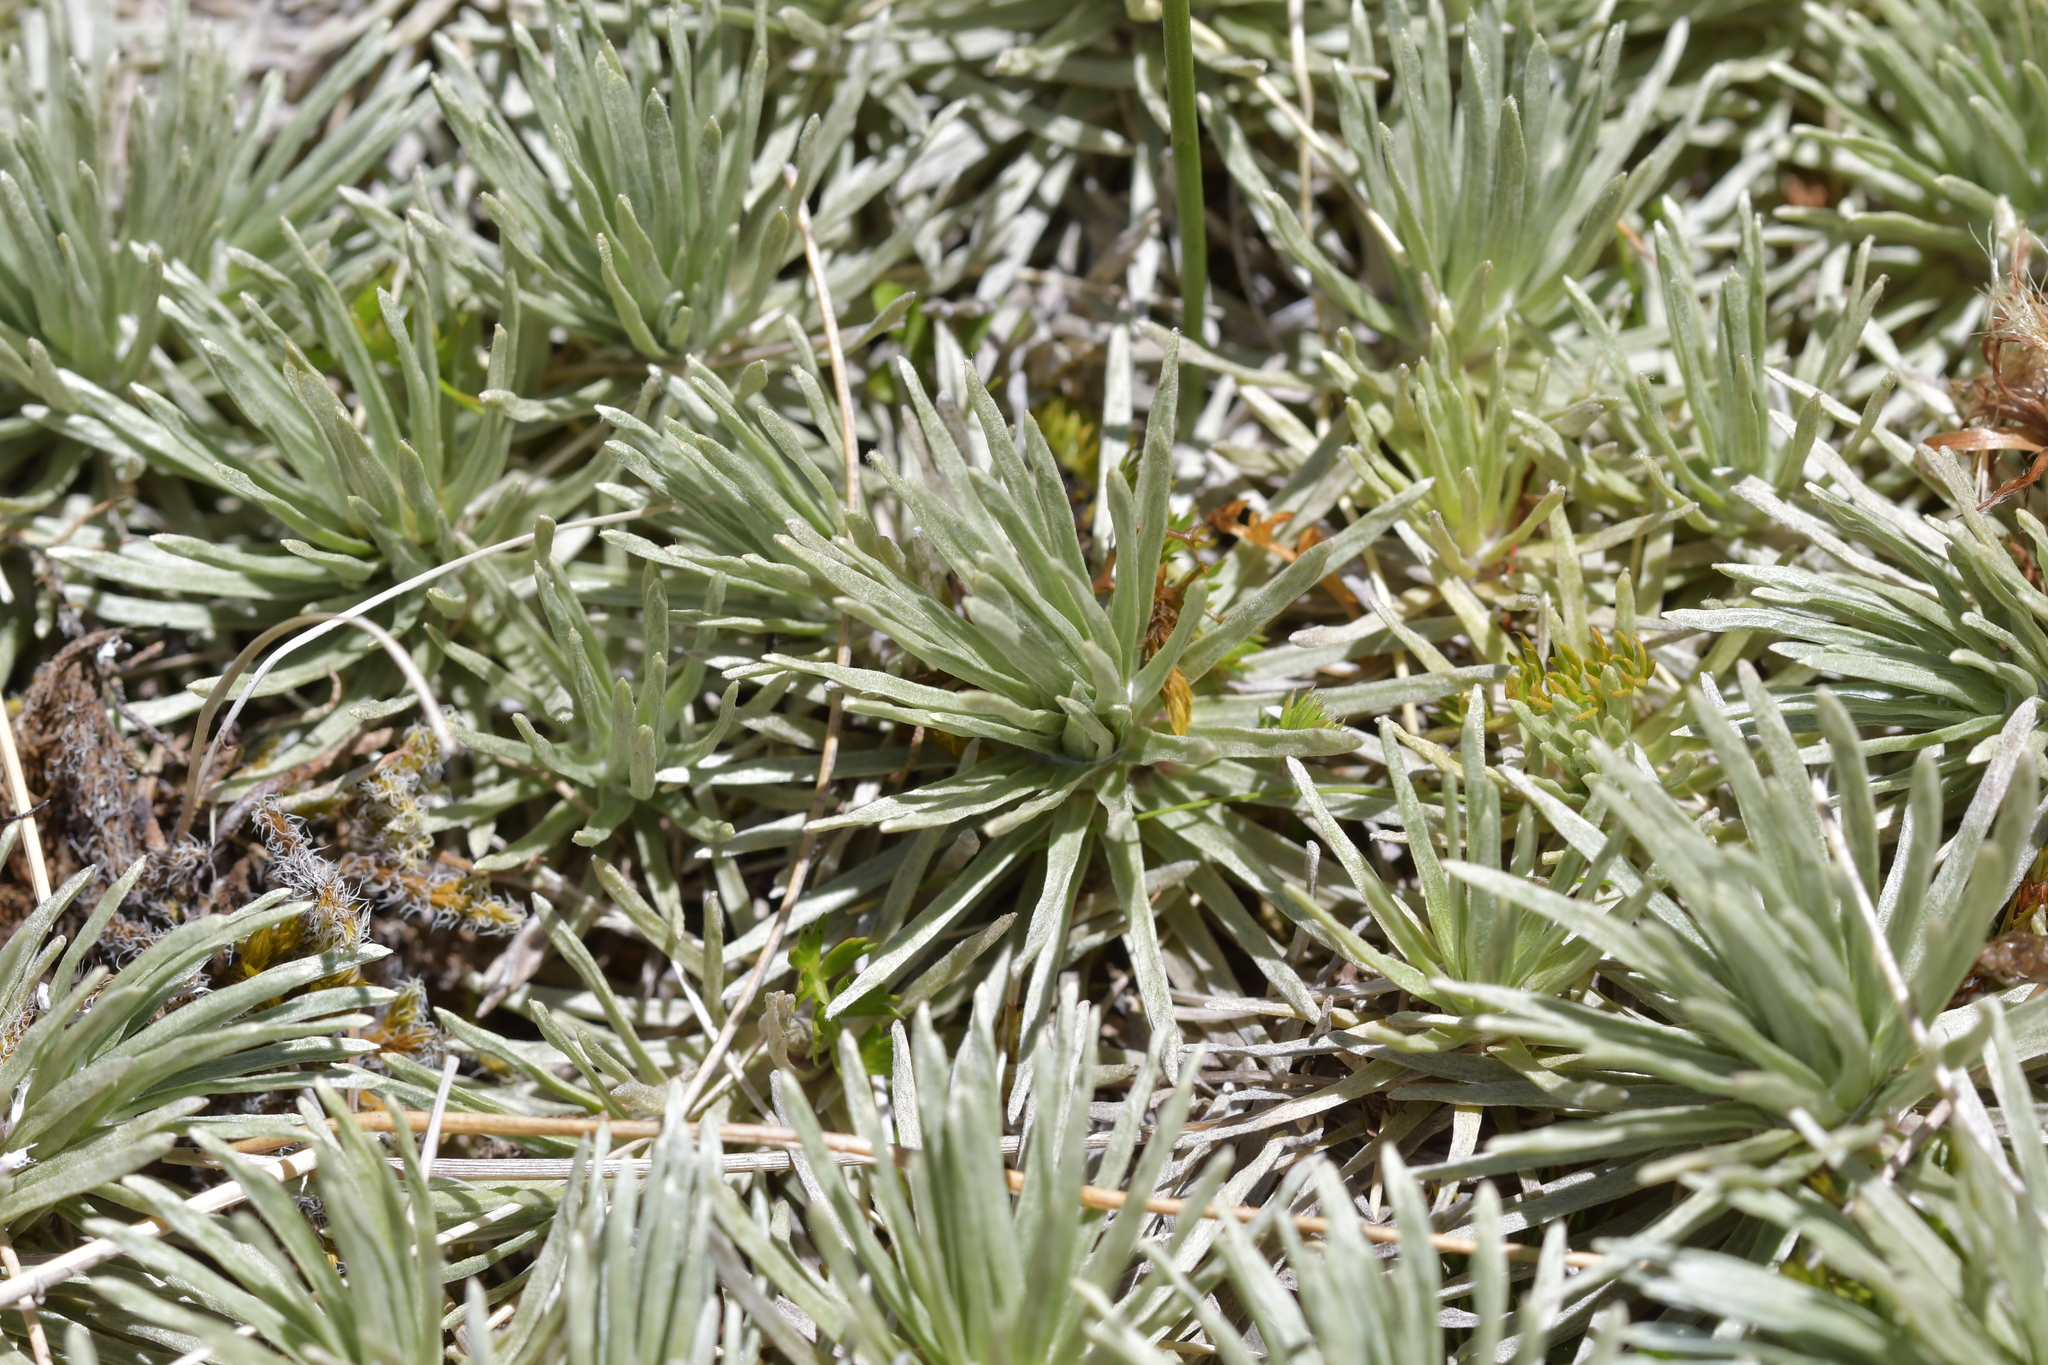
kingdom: Plantae
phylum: Tracheophyta
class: Magnoliopsida
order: Asterales
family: Asteraceae
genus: Celmisia
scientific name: Celmisia sessiliflora
